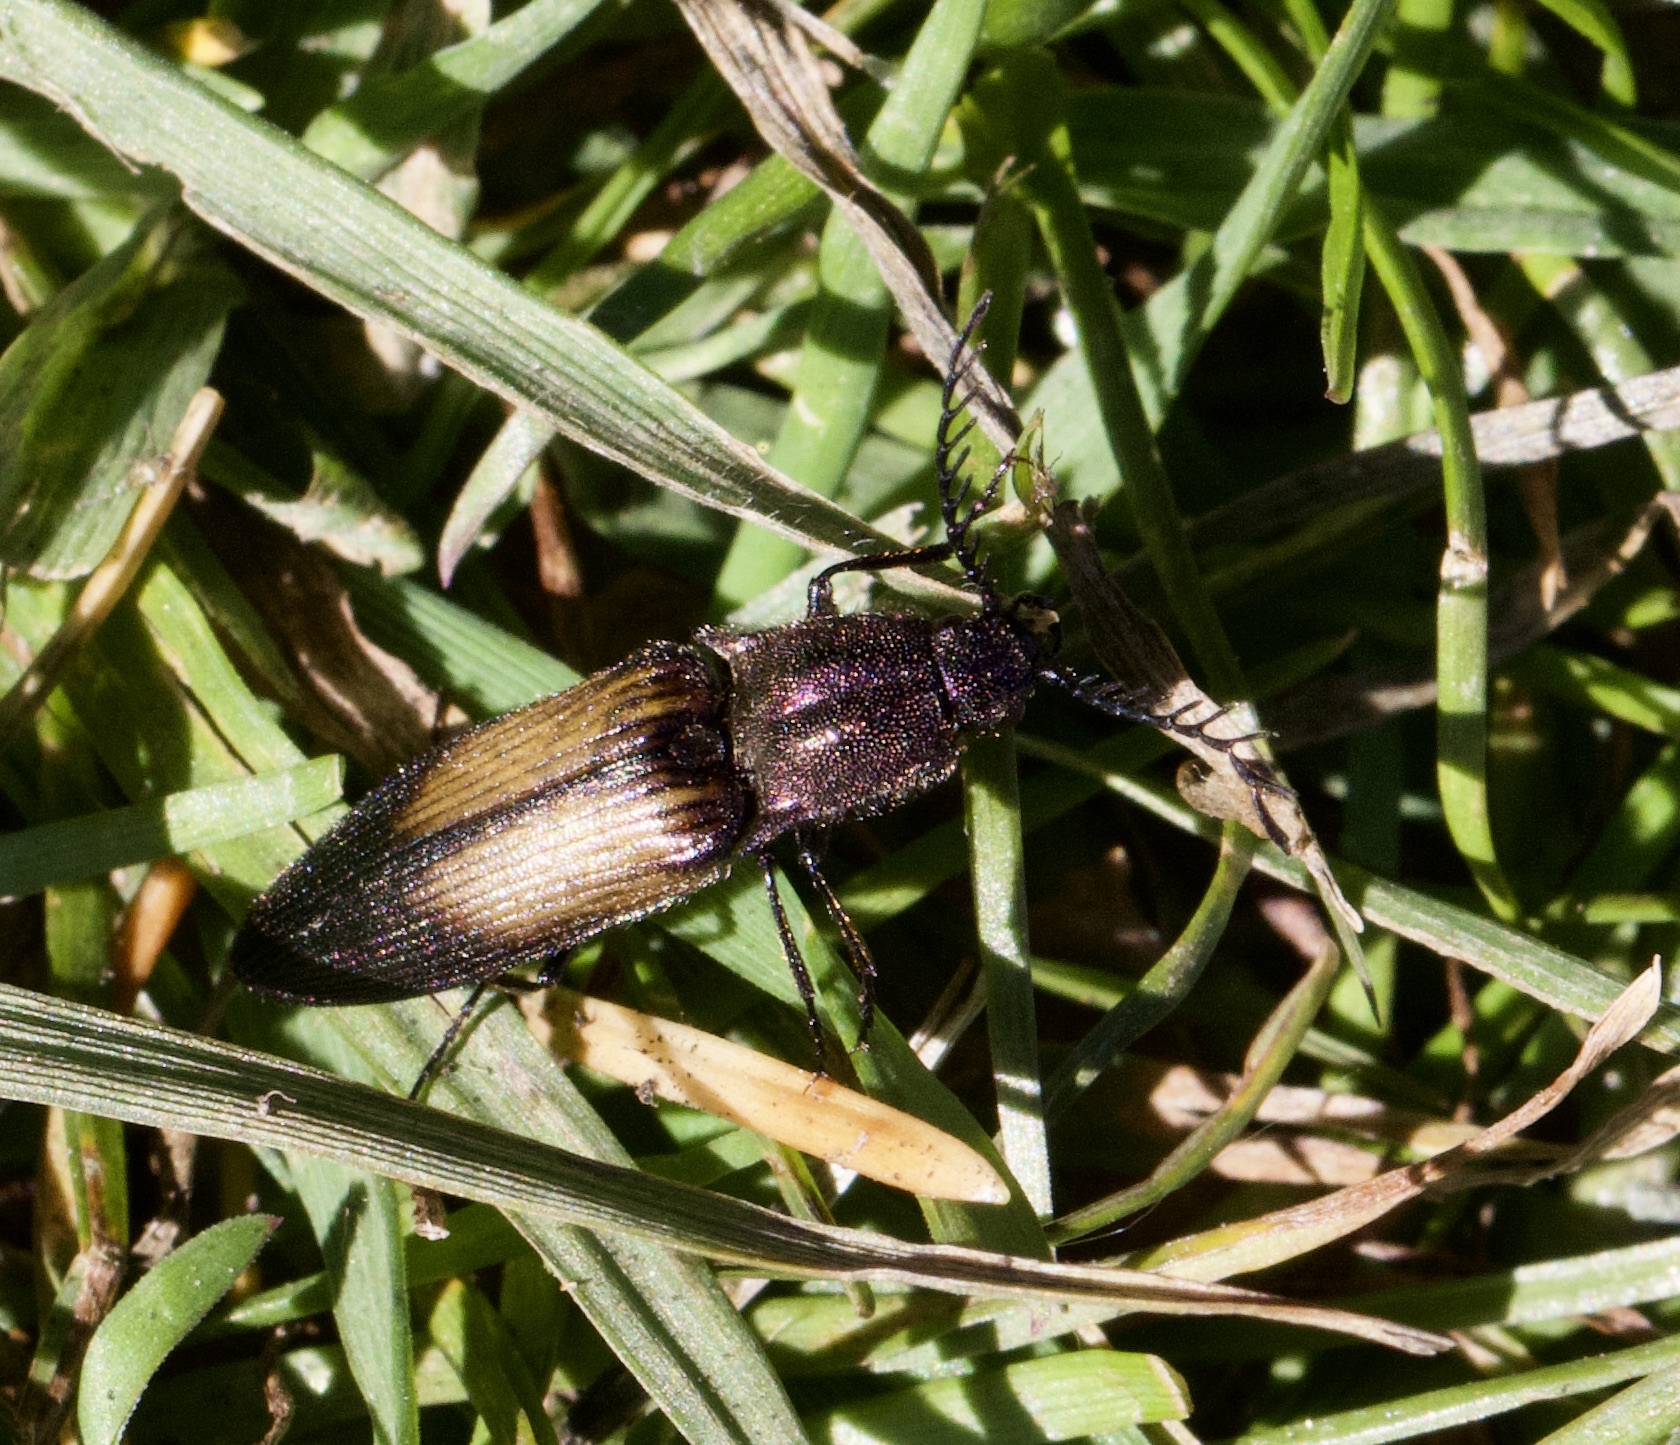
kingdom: Animalia
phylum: Arthropoda
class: Insecta
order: Coleoptera
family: Elateridae
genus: Ctenicera
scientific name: Ctenicera cuprea
